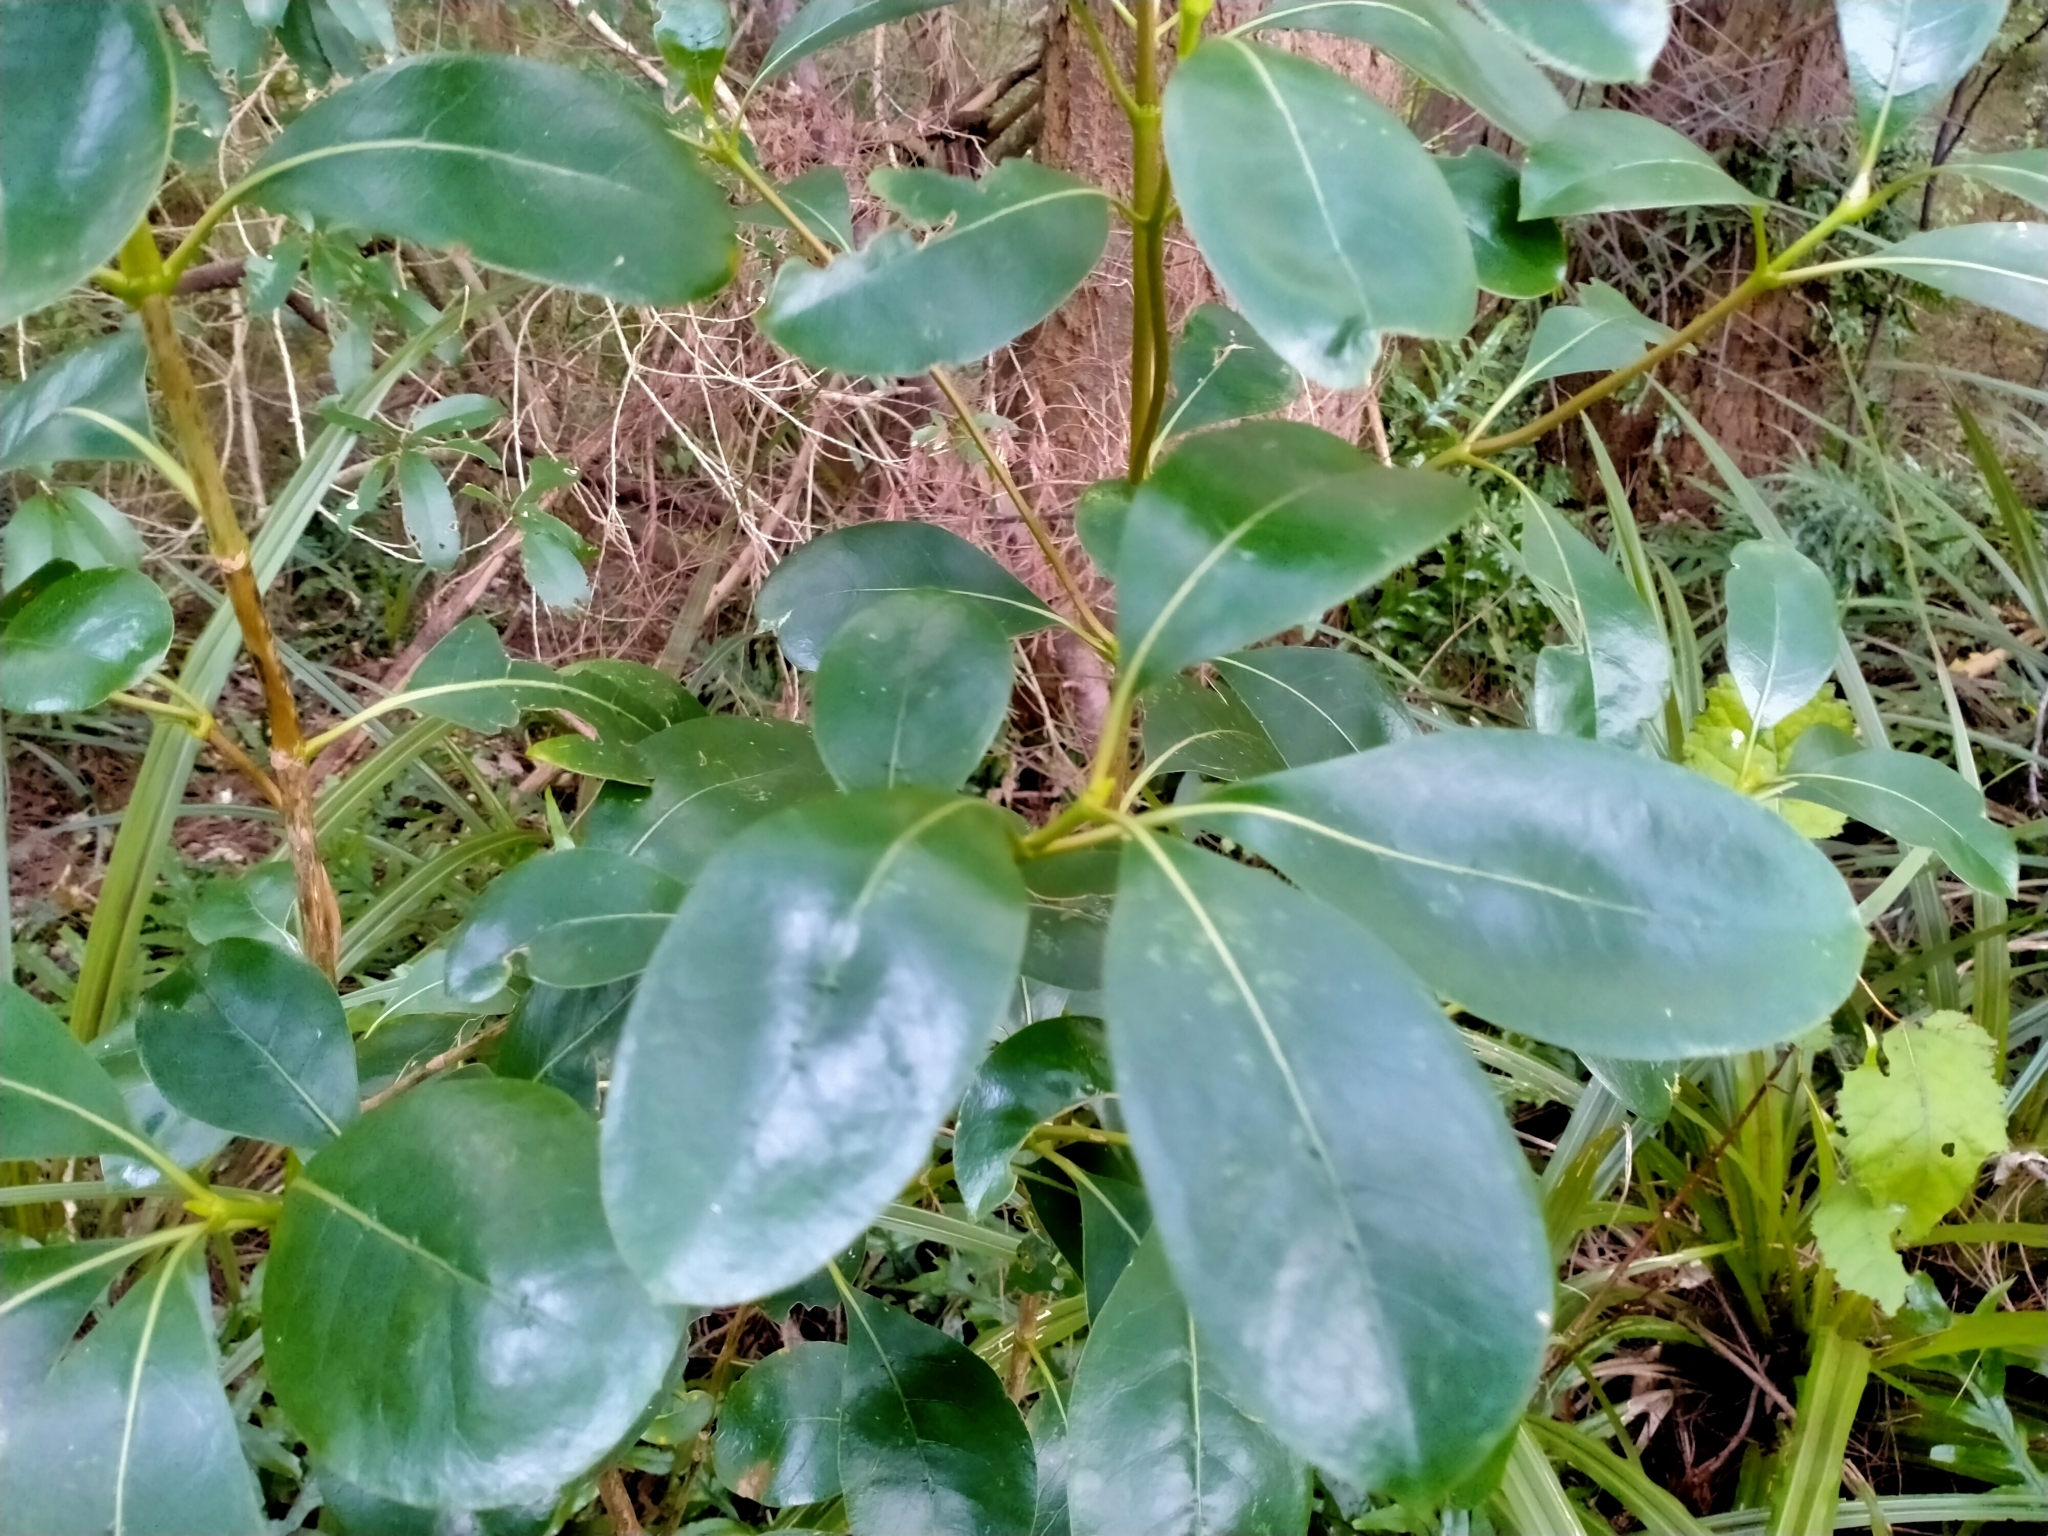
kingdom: Plantae
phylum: Tracheophyta
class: Magnoliopsida
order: Gentianales
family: Rubiaceae
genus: Coprosma
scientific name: Coprosma lucida
